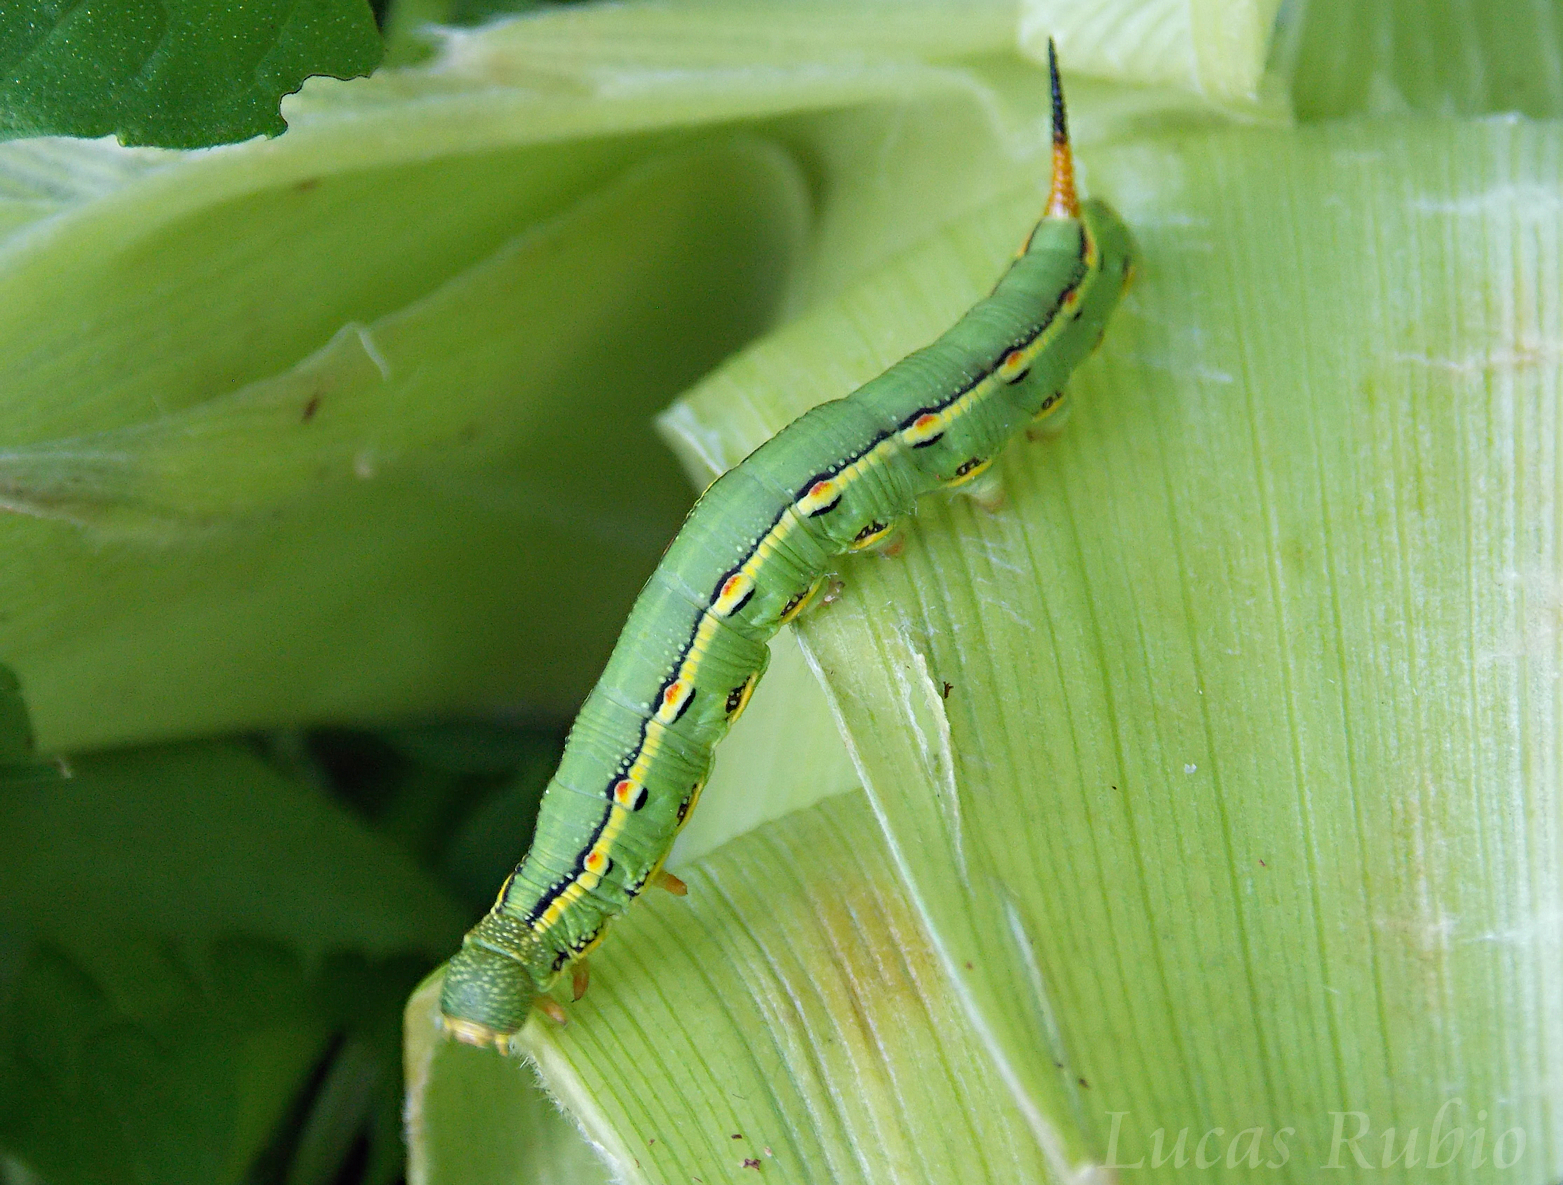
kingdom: Animalia
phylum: Arthropoda
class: Insecta
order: Lepidoptera
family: Sphingidae
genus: Hyles
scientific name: Hyles lineata
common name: White-lined sphinx
